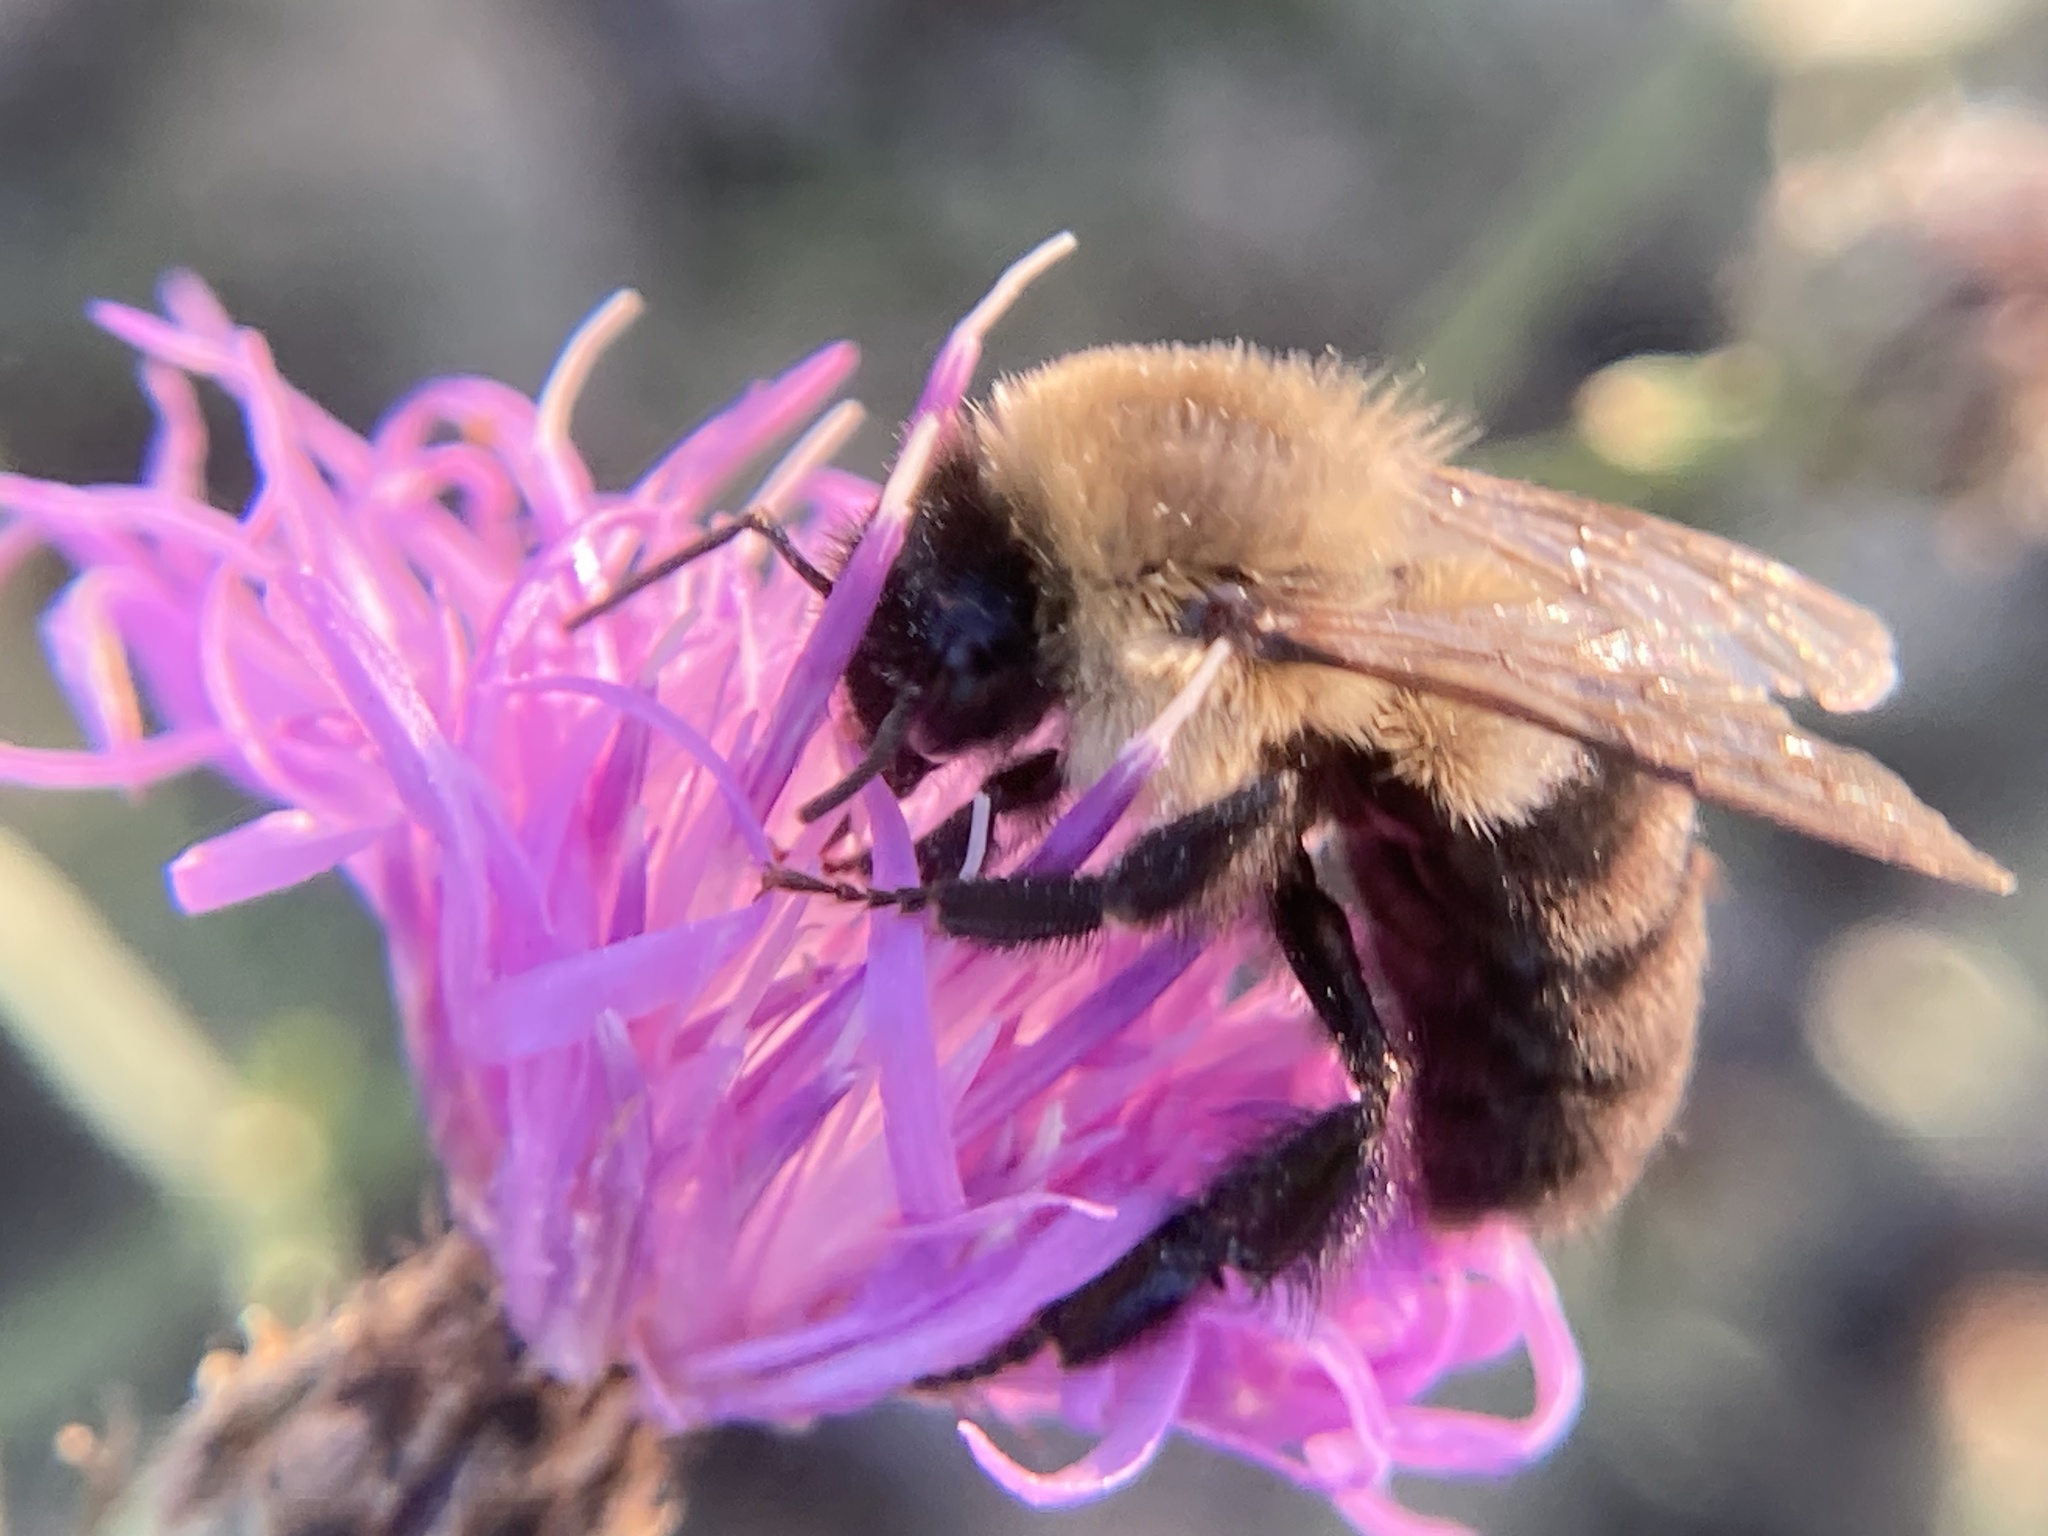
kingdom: Animalia
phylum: Arthropoda
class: Insecta
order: Hymenoptera
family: Apidae
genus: Bombus
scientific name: Bombus impatiens
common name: Common eastern bumble bee
